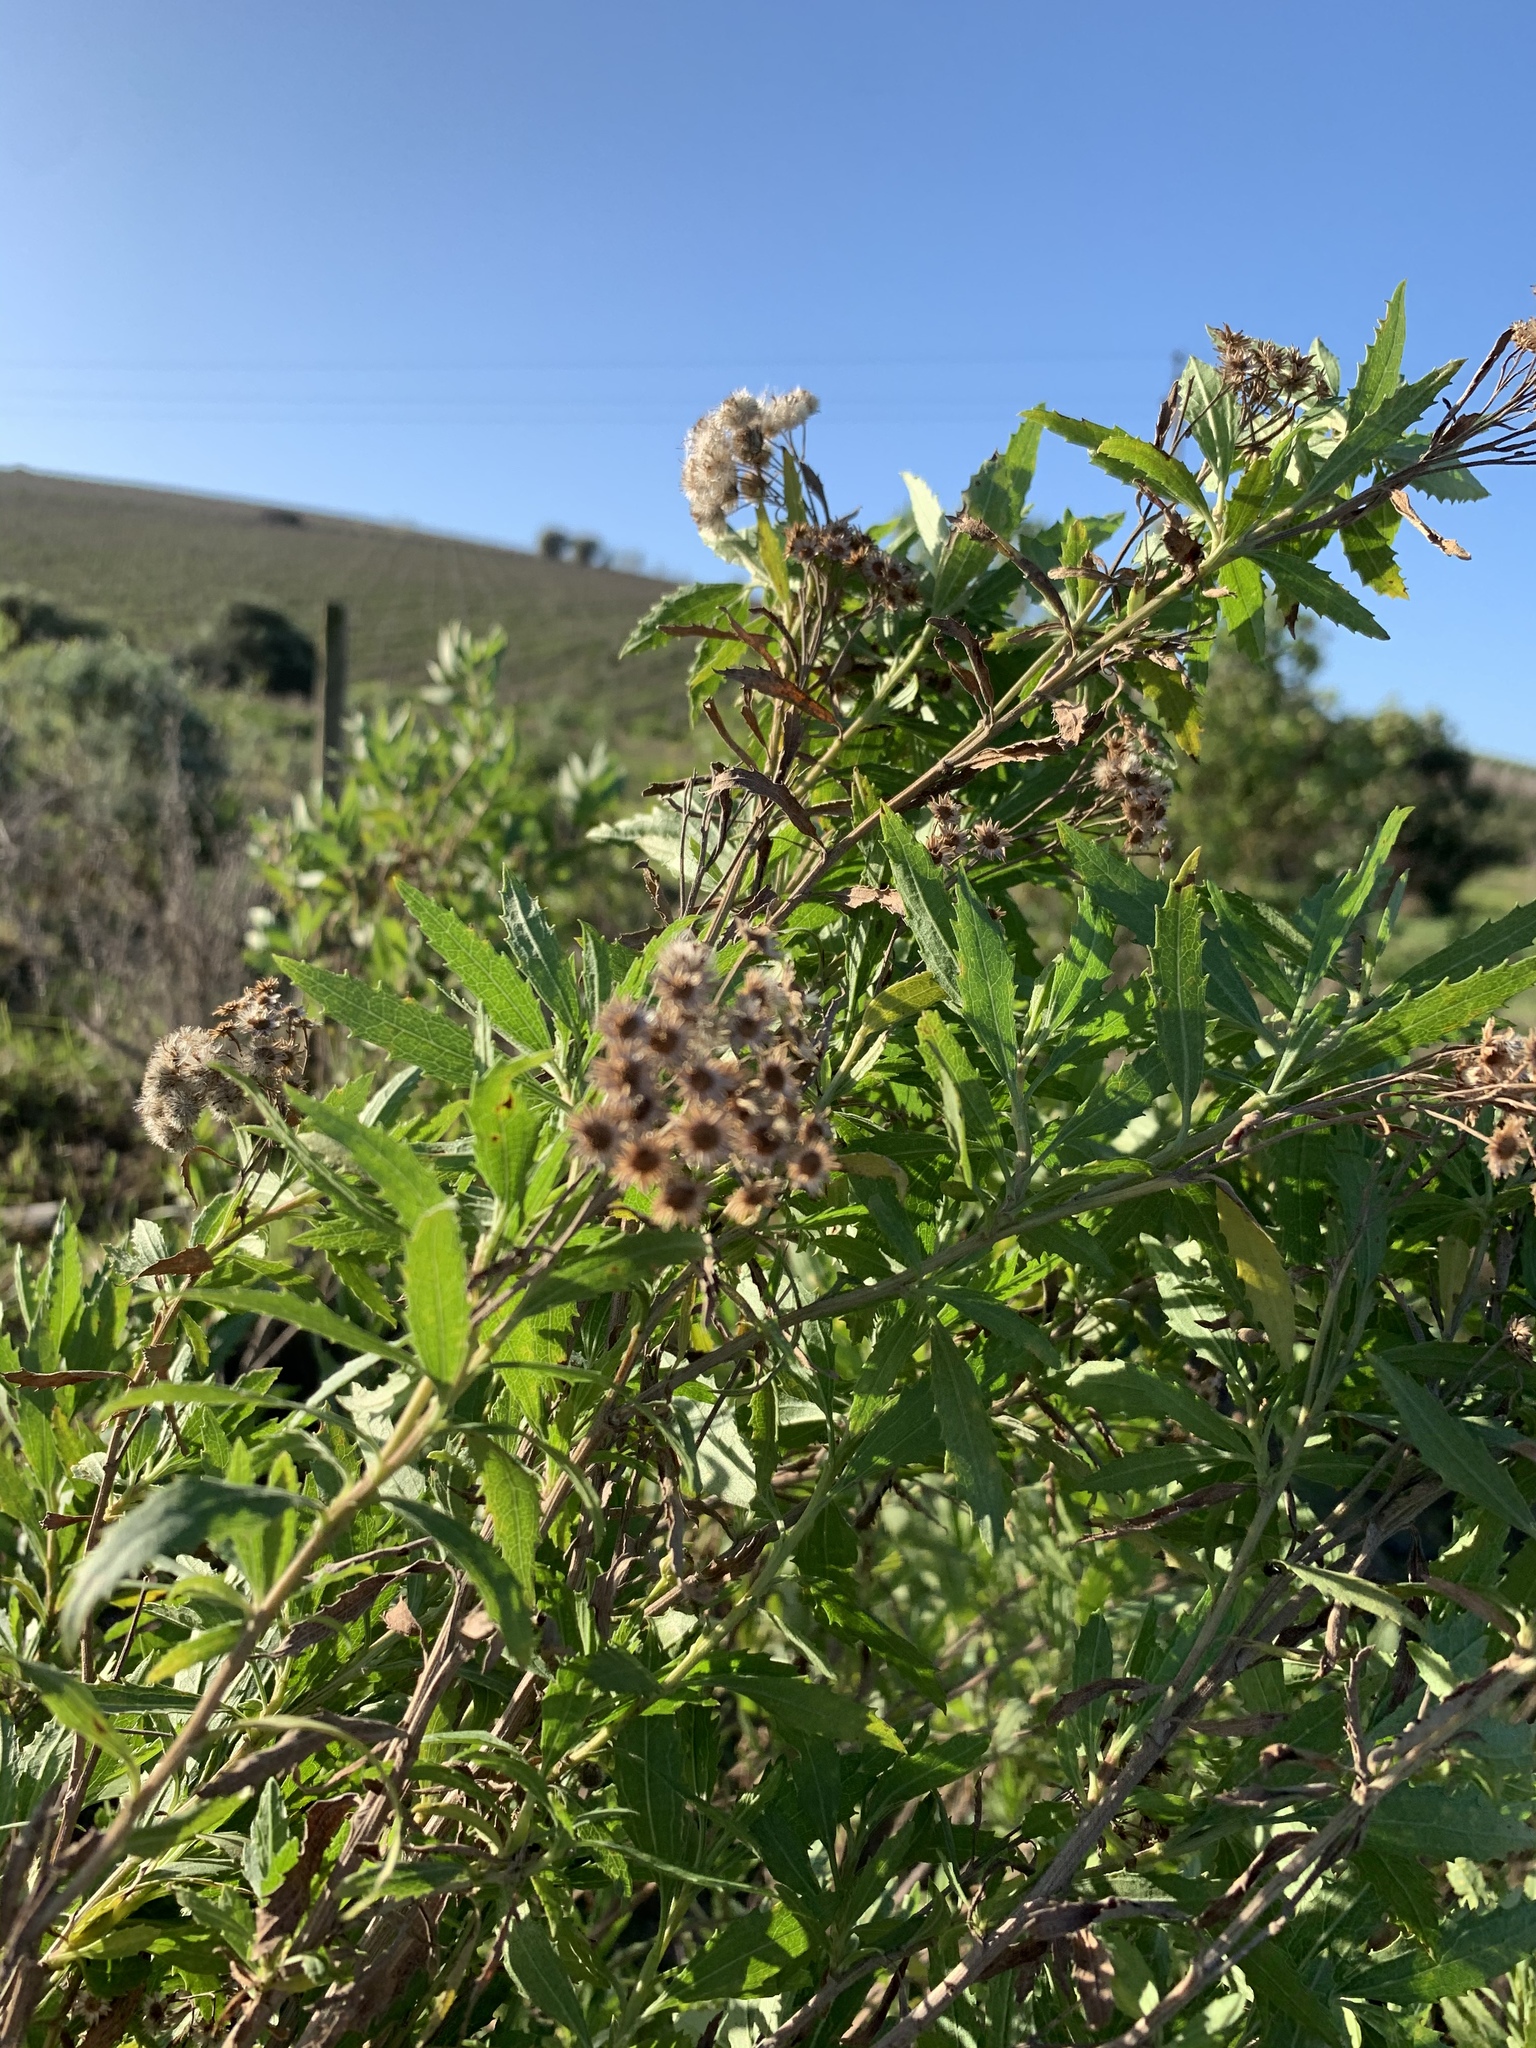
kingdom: Plantae
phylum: Tracheophyta
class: Magnoliopsida
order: Asterales
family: Asteraceae
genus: Nidorella
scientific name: Nidorella ivifolia
